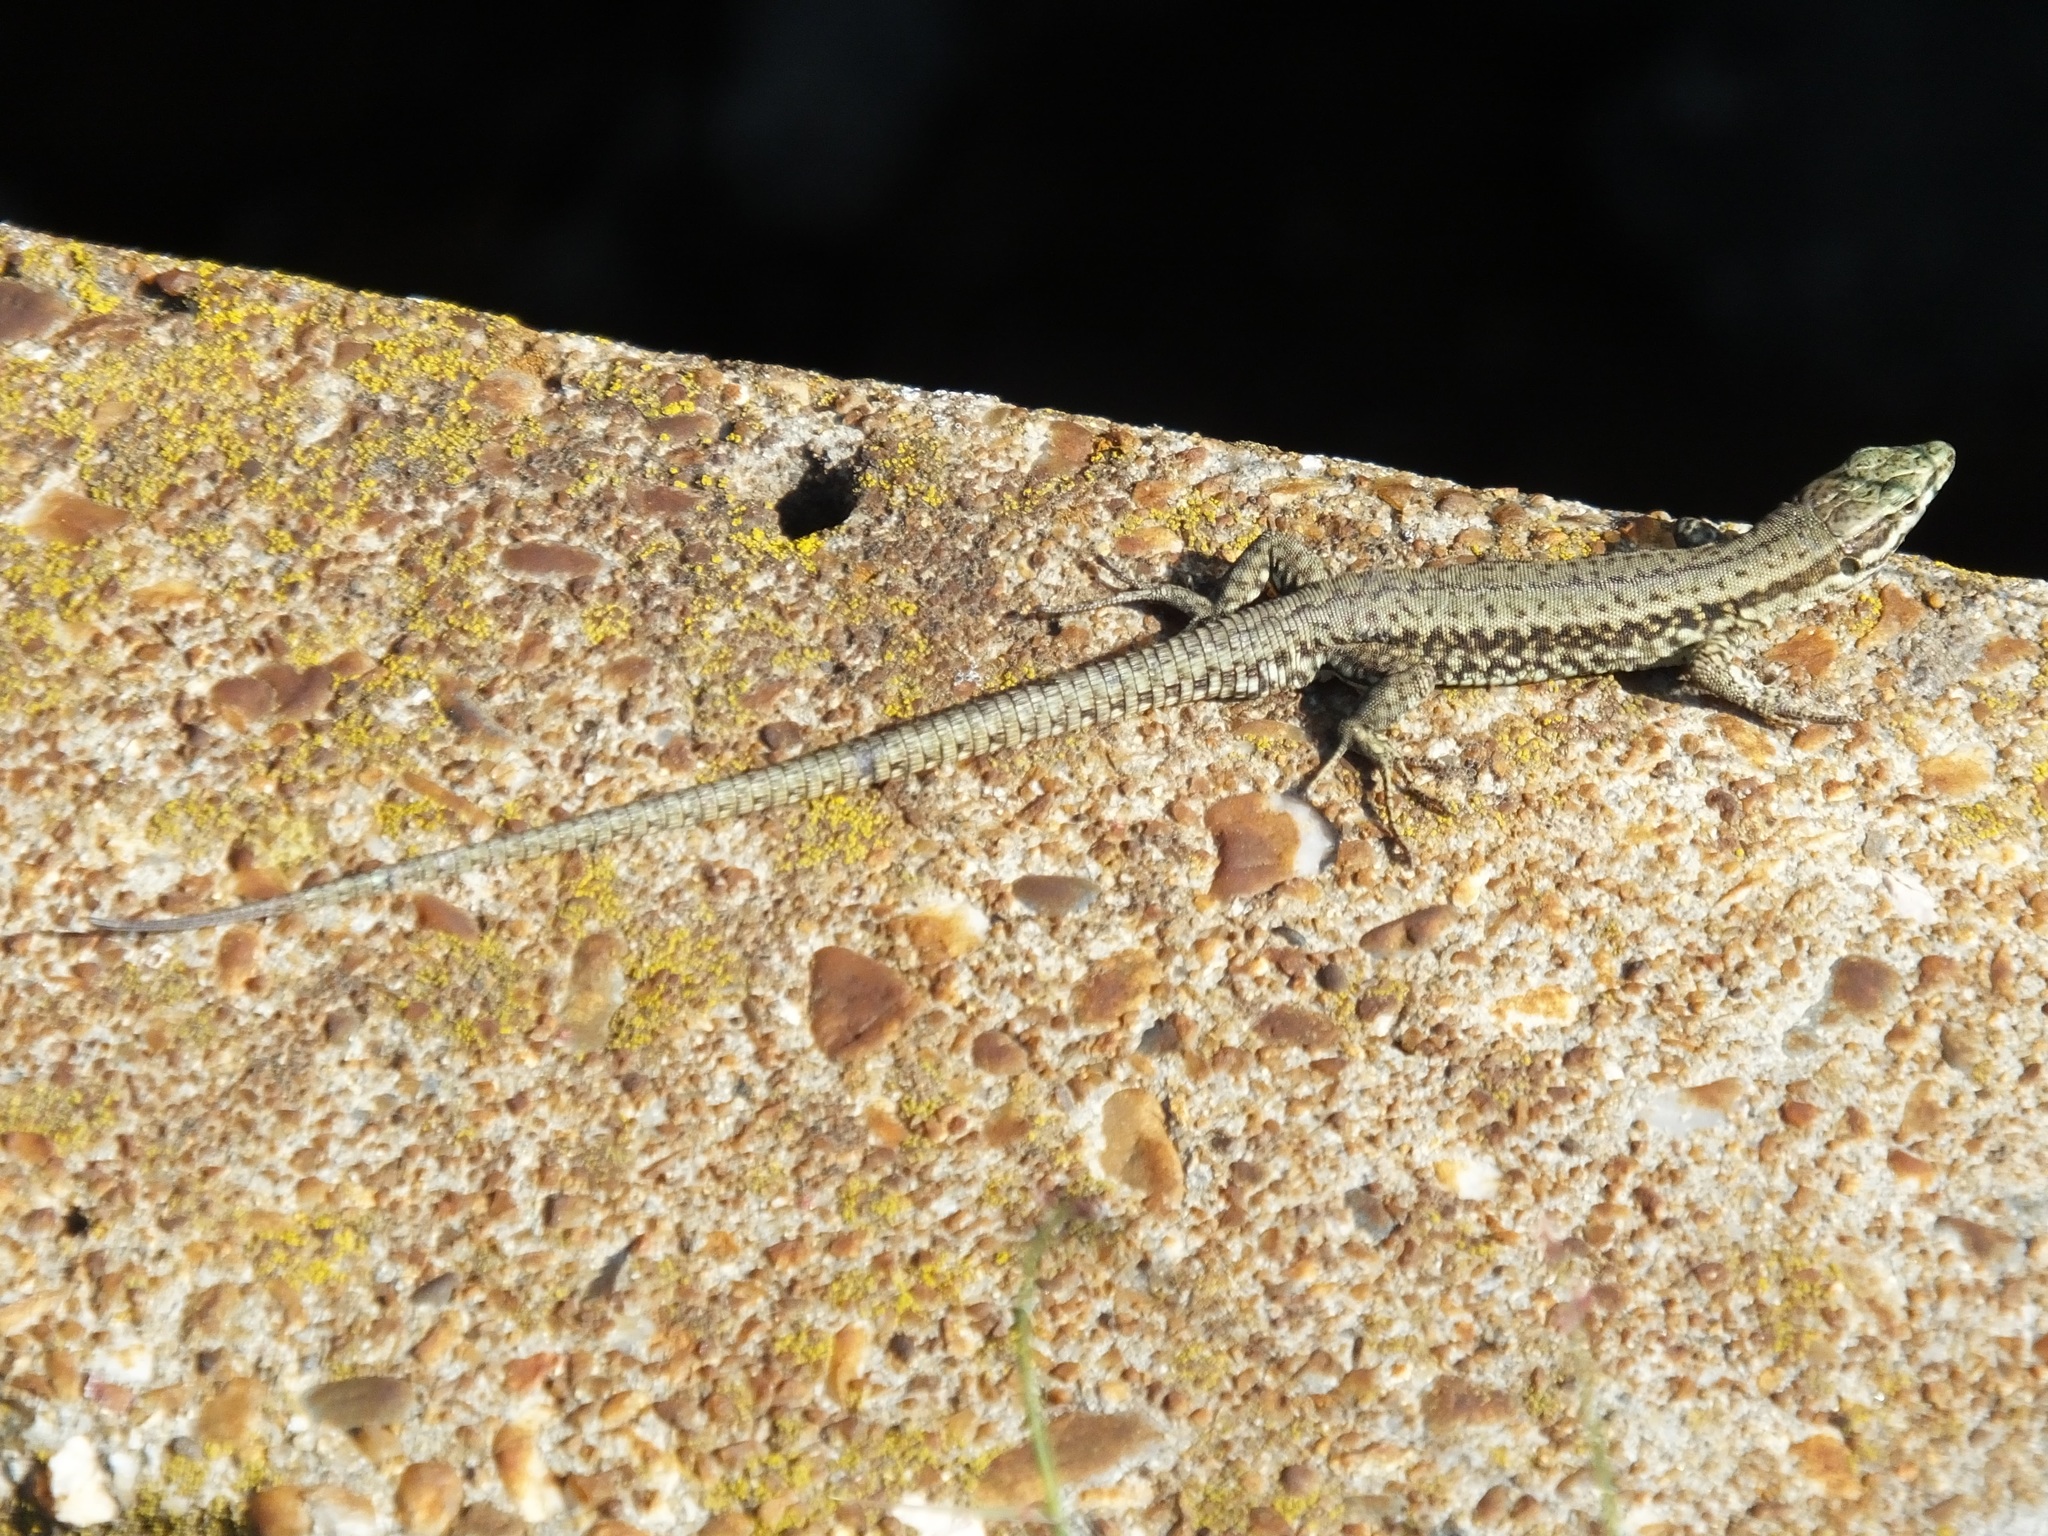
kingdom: Animalia
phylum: Chordata
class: Squamata
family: Lacertidae
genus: Podarcis
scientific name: Podarcis muralis
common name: Common wall lizard
